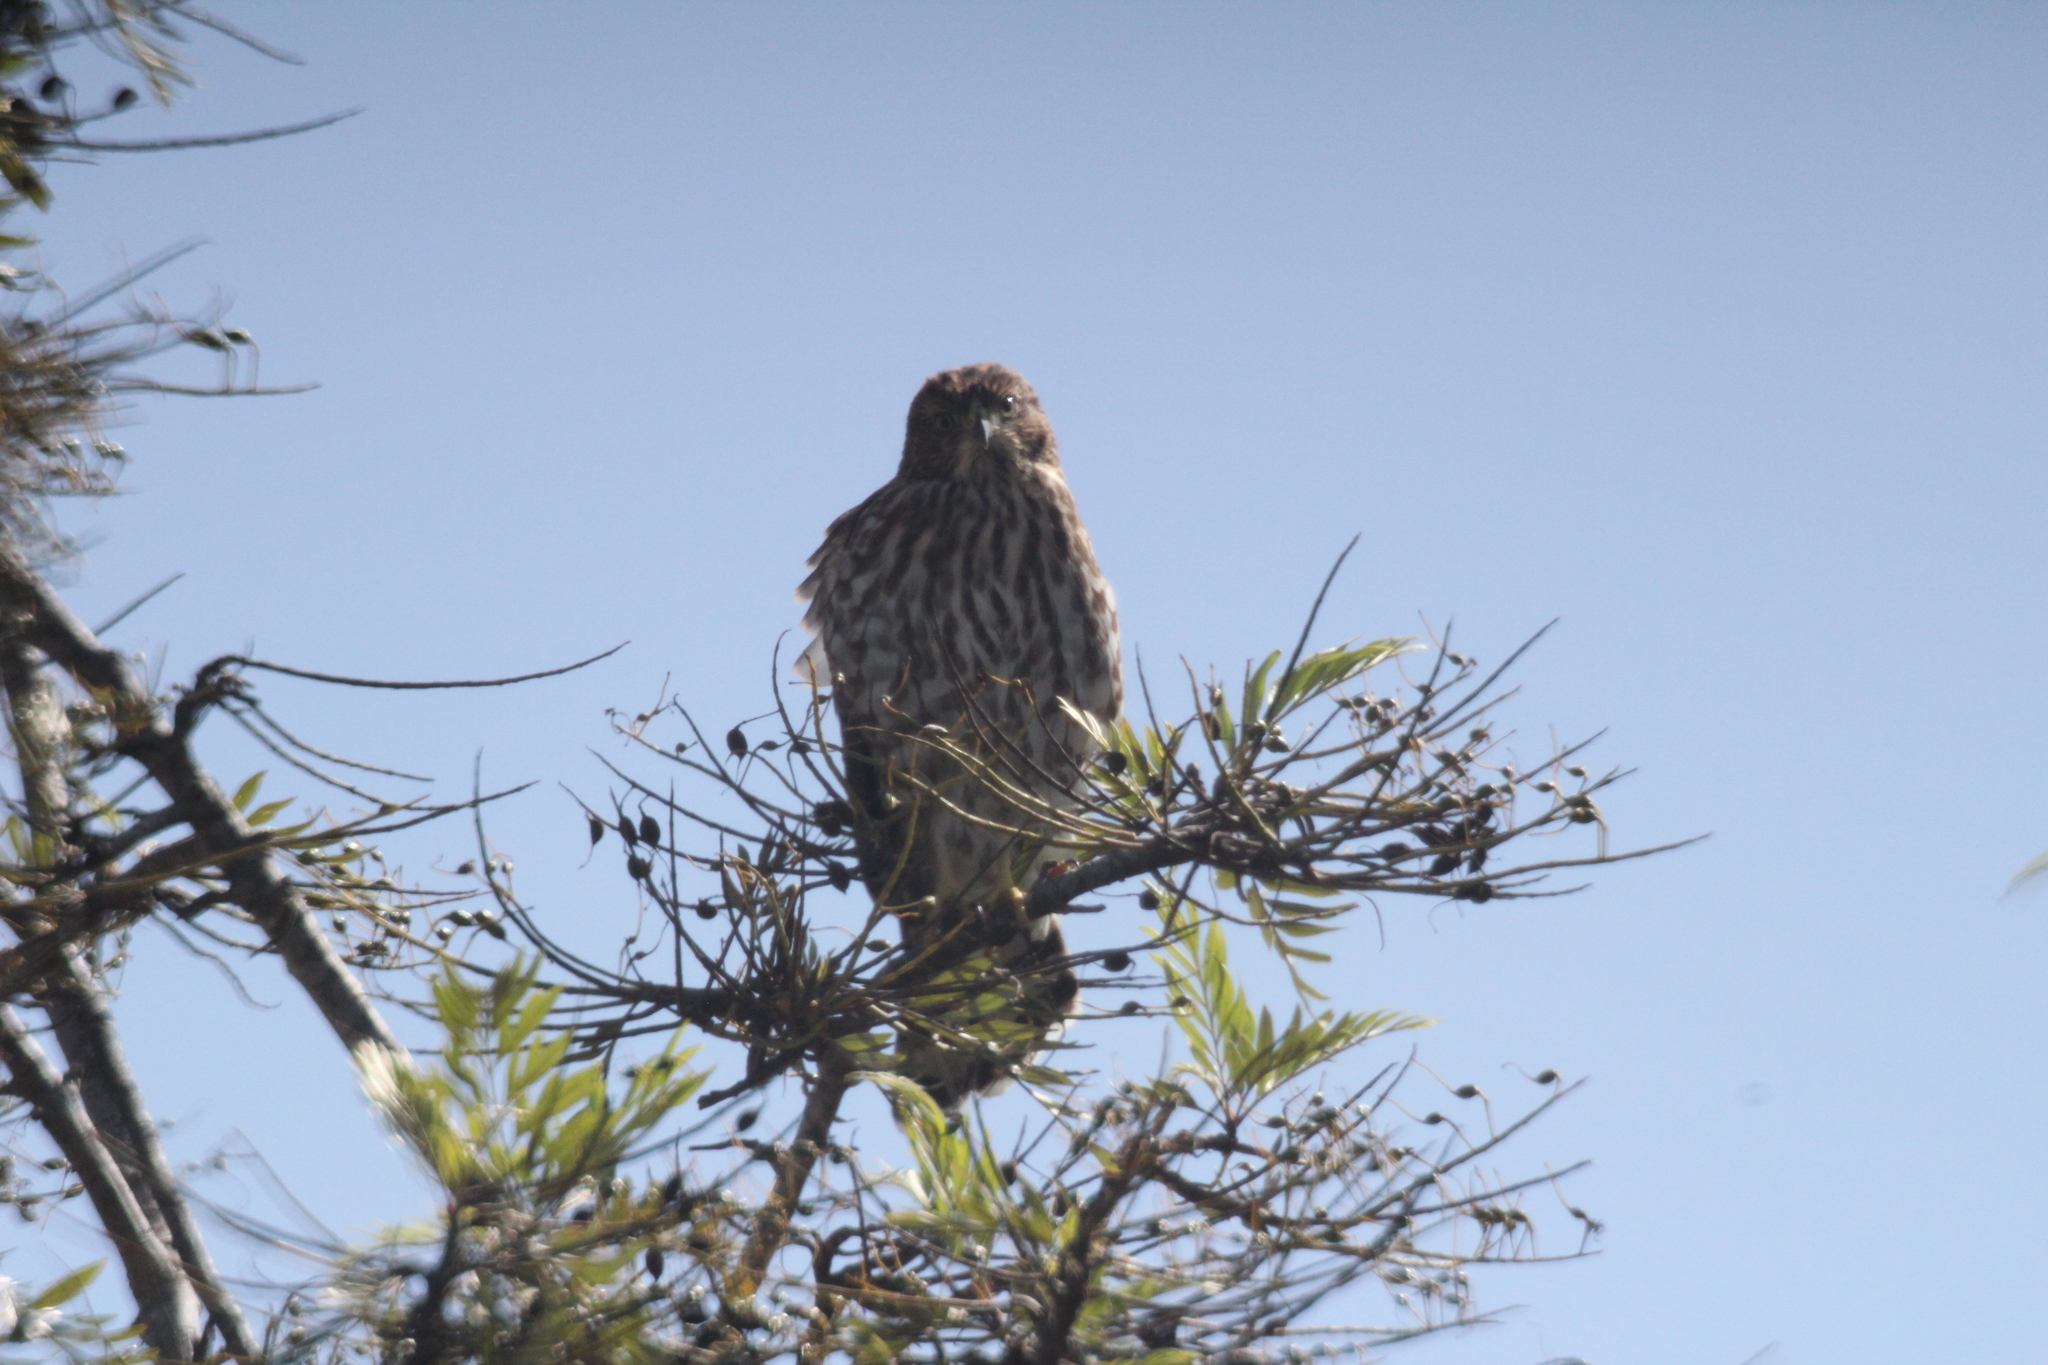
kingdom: Animalia
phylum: Chordata
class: Aves
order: Accipitriformes
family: Accipitridae
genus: Accipiter
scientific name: Accipiter cooperii
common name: Cooper's hawk
